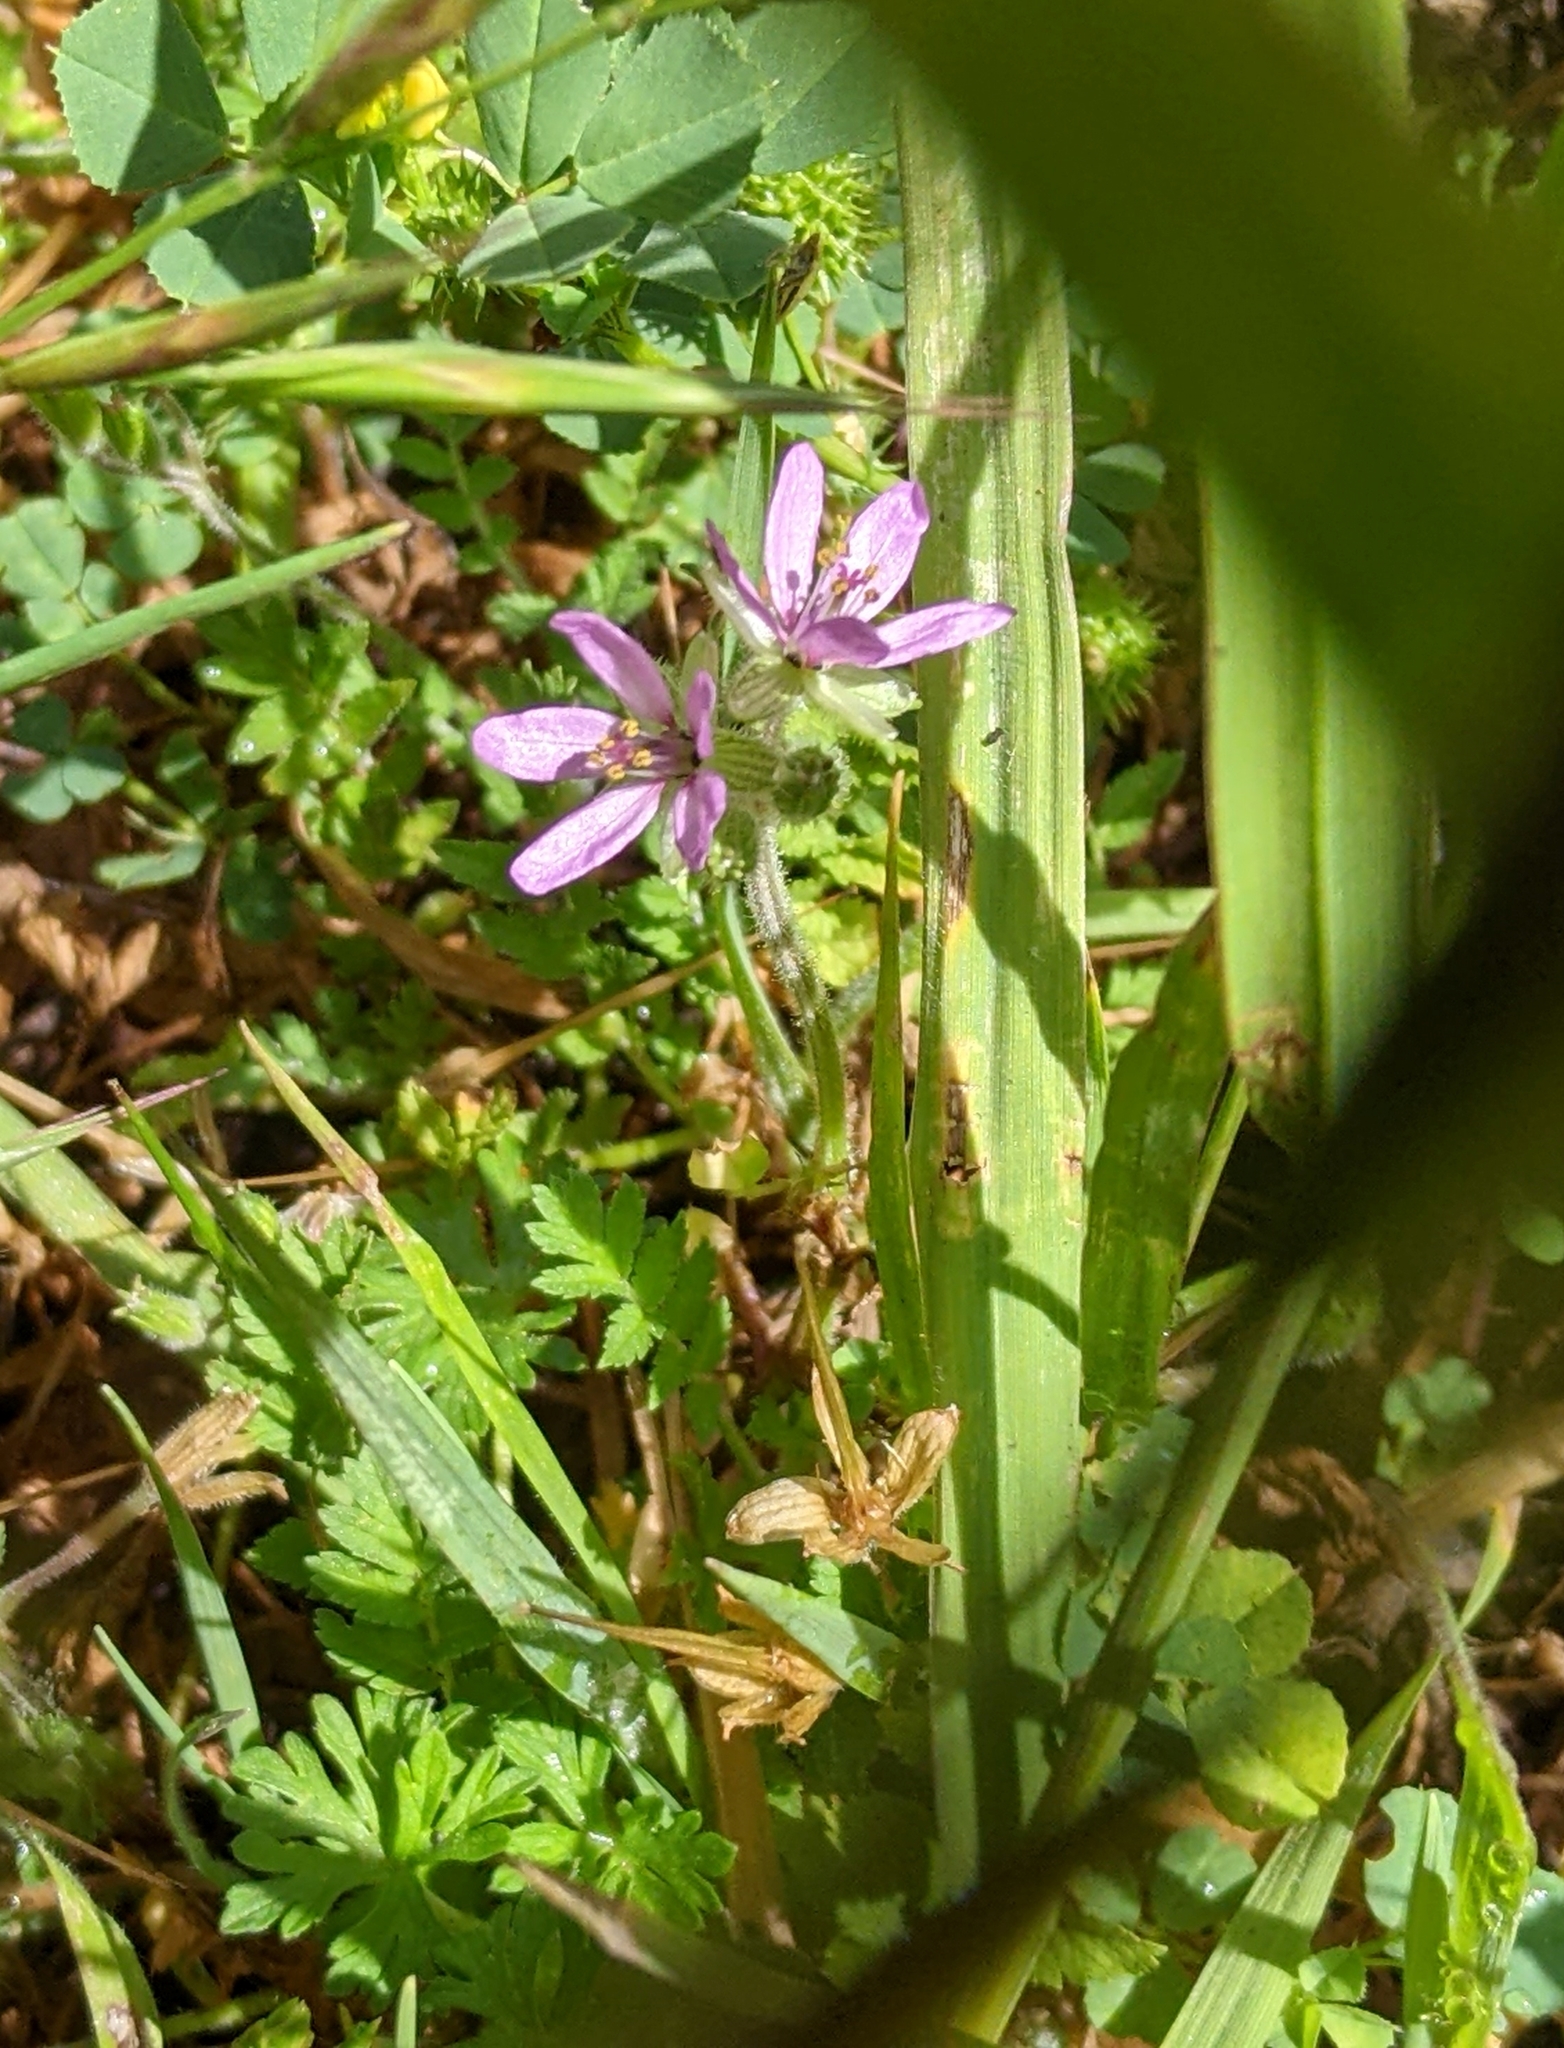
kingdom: Plantae
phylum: Tracheophyta
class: Magnoliopsida
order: Geraniales
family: Geraniaceae
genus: Erodium
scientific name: Erodium moschatum
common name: Musk stork's-bill
